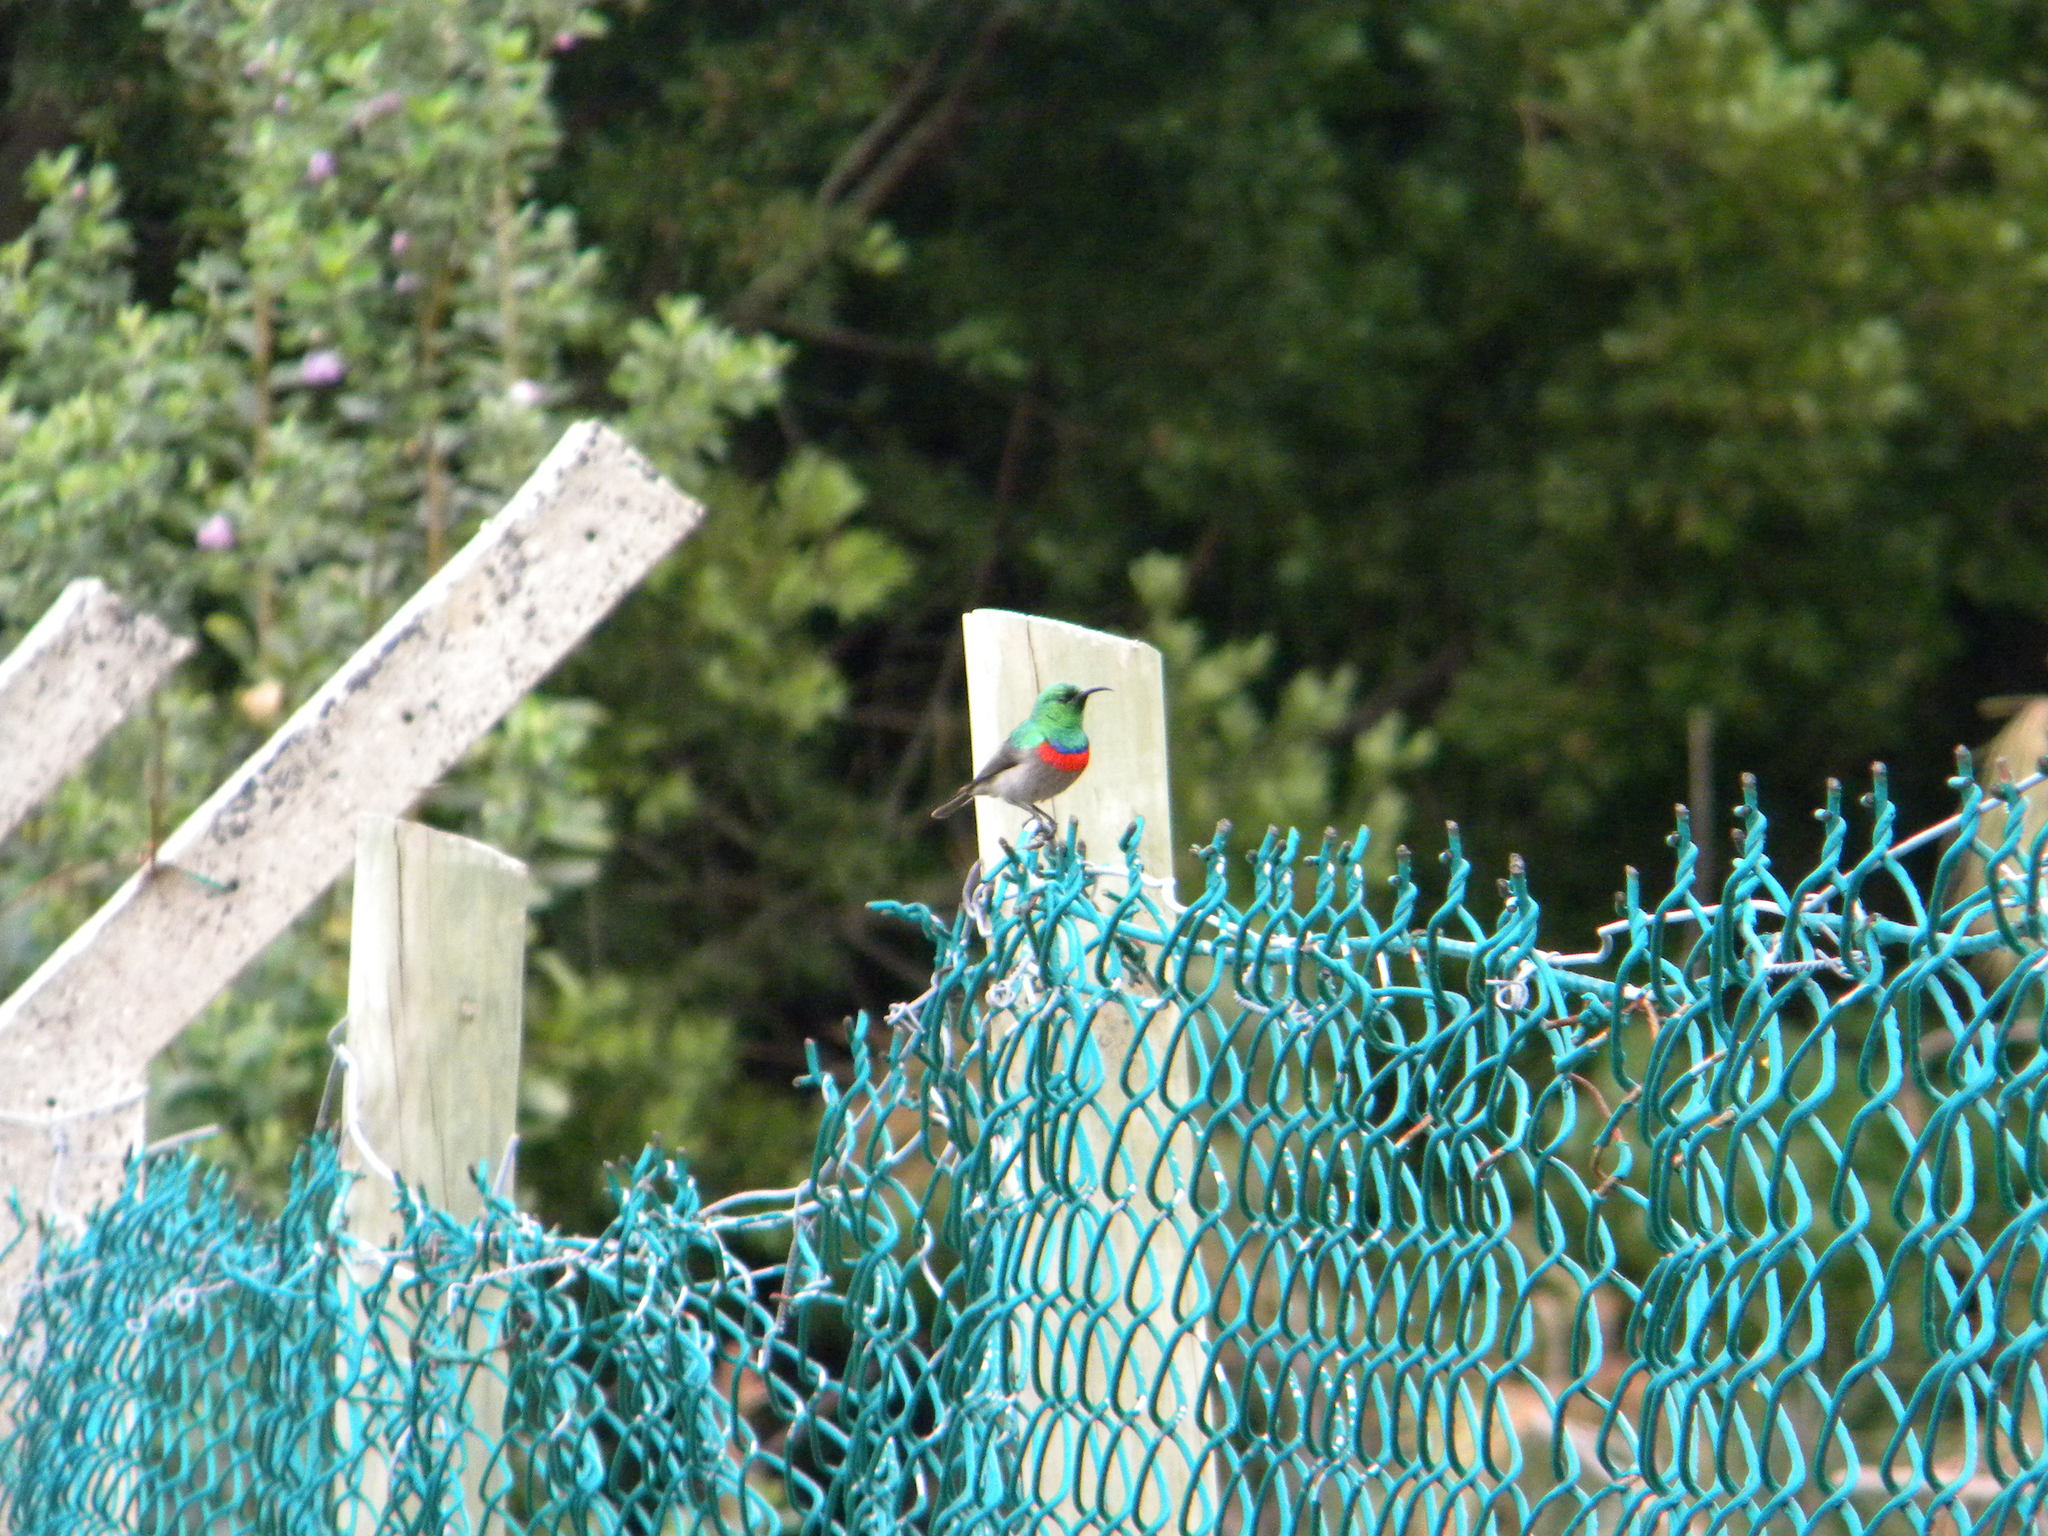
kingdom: Animalia
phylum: Chordata
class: Aves
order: Passeriformes
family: Nectariniidae
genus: Cinnyris
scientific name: Cinnyris chalybeus
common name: Southern double-collared sunbird
